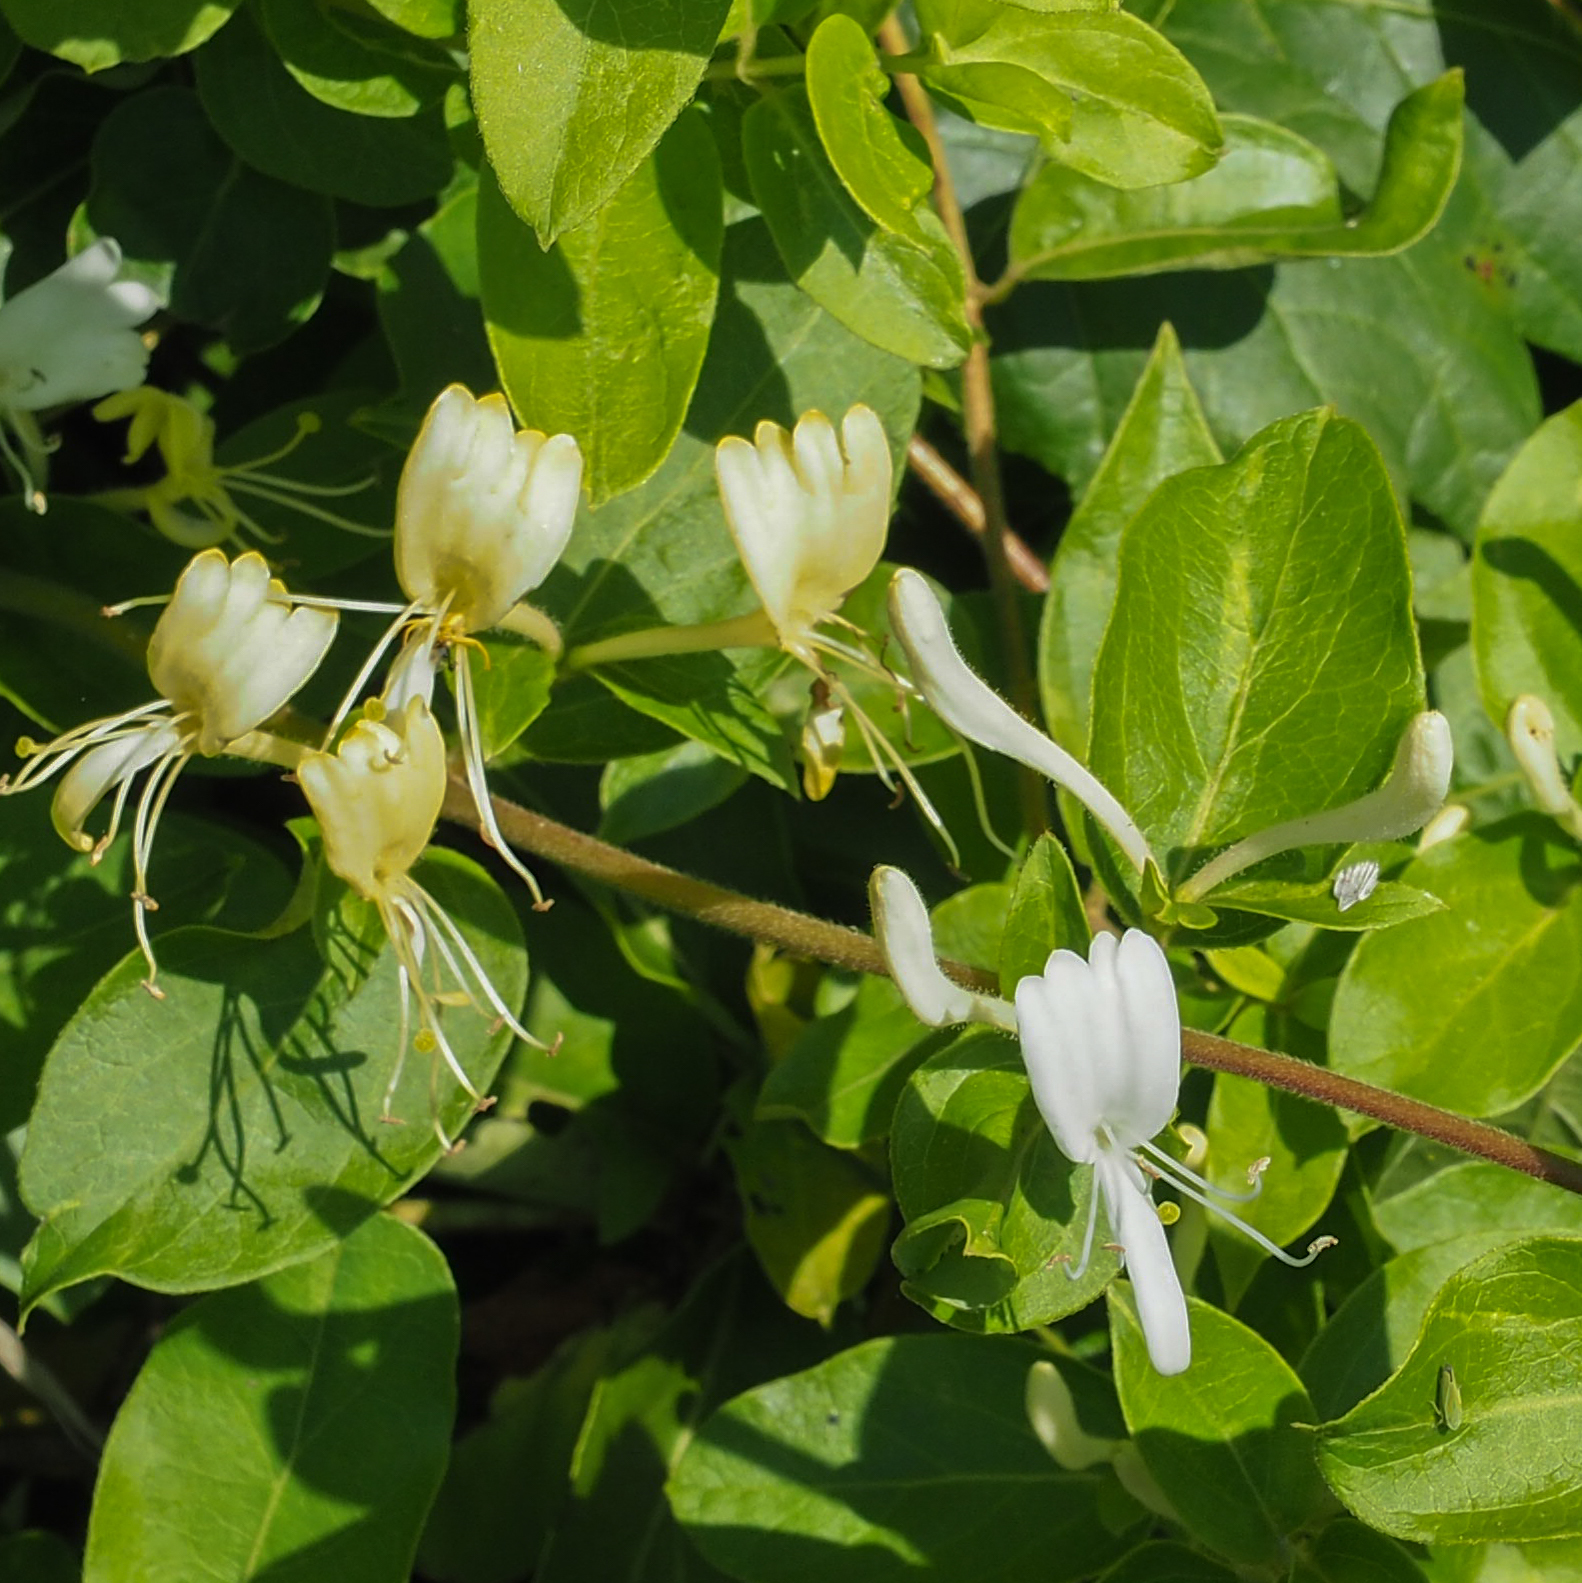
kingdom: Plantae
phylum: Tracheophyta
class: Magnoliopsida
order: Dipsacales
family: Caprifoliaceae
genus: Lonicera
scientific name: Lonicera japonica
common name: Japanese honeysuckle
